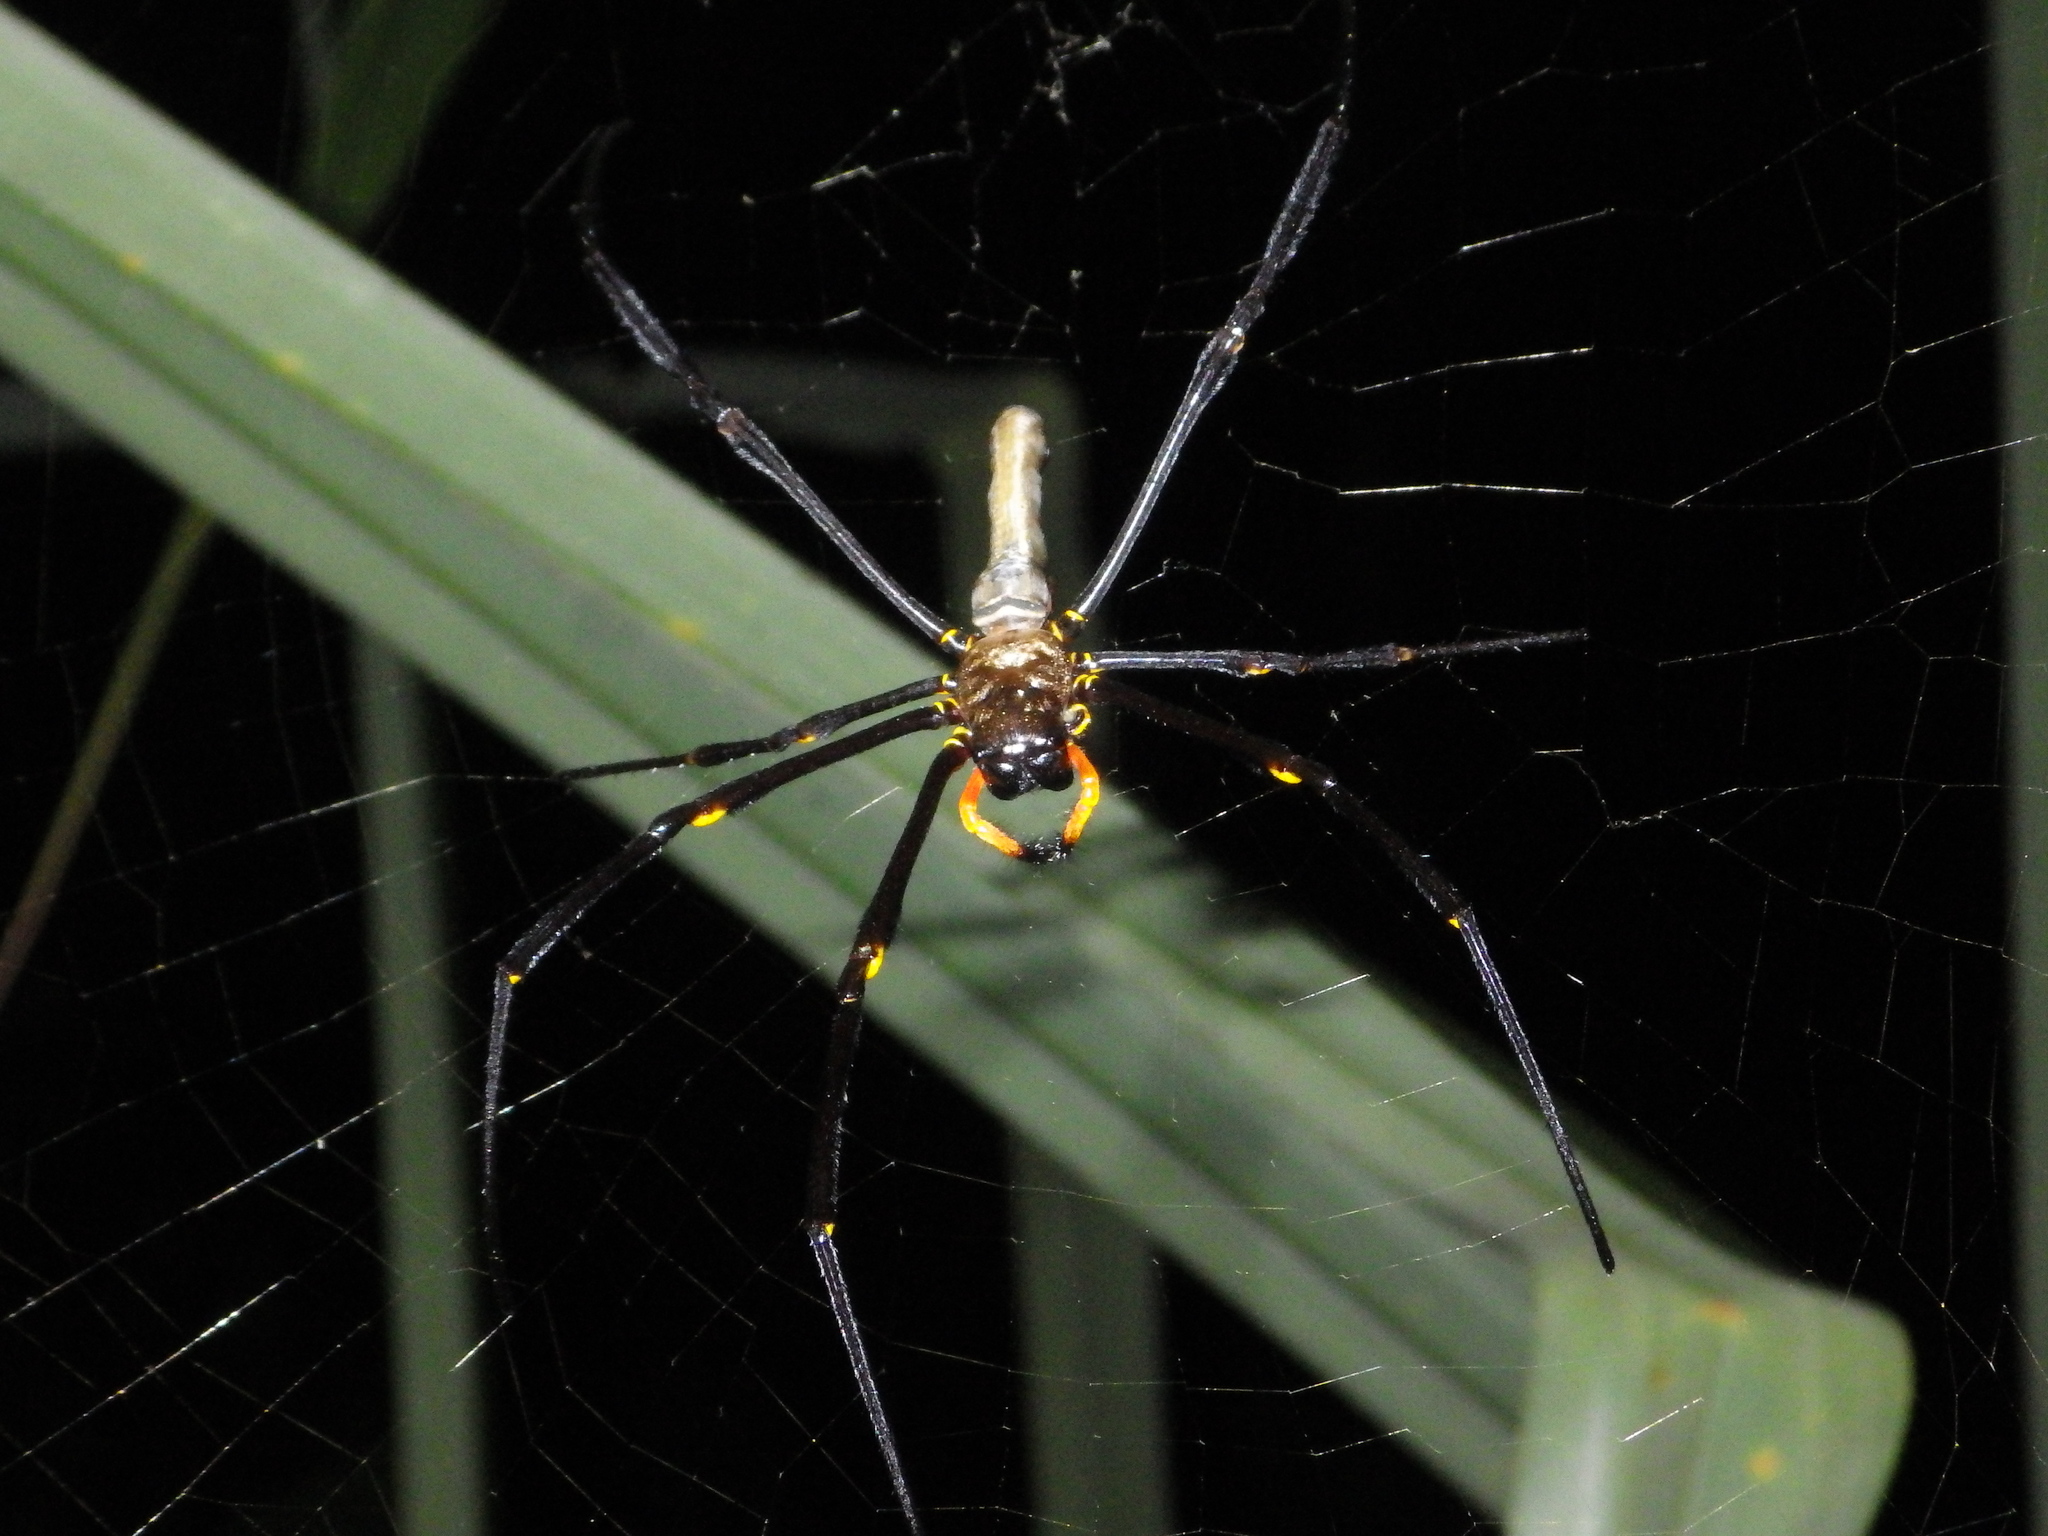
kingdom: Animalia
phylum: Arthropoda
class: Arachnida
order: Araneae
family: Araneidae
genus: Nephila
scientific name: Nephila pilipes
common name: Giant golden orb weaver
